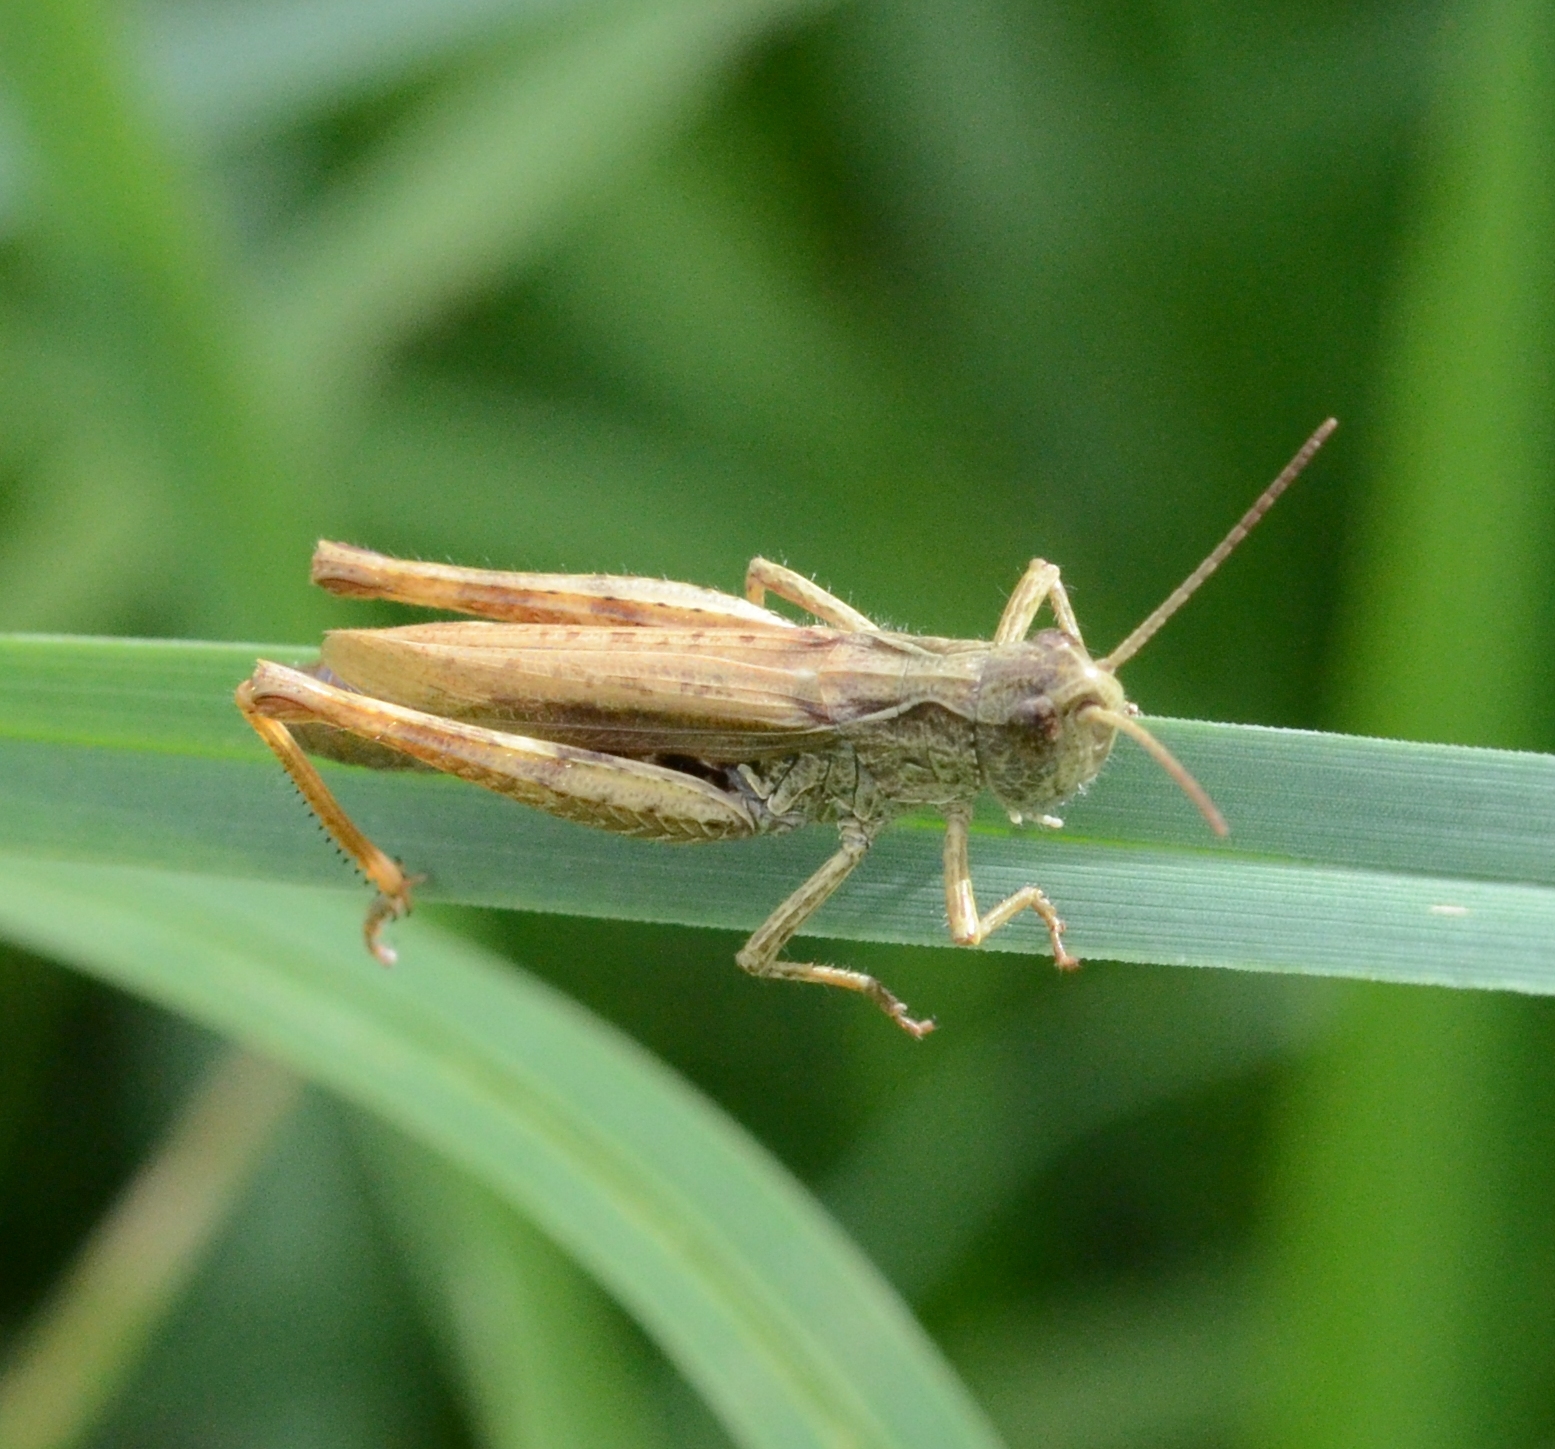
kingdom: Animalia
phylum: Arthropoda
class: Insecta
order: Orthoptera
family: Acrididae
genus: Chorthippus
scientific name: Chorthippus apricarius
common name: Upland field grasshopper
